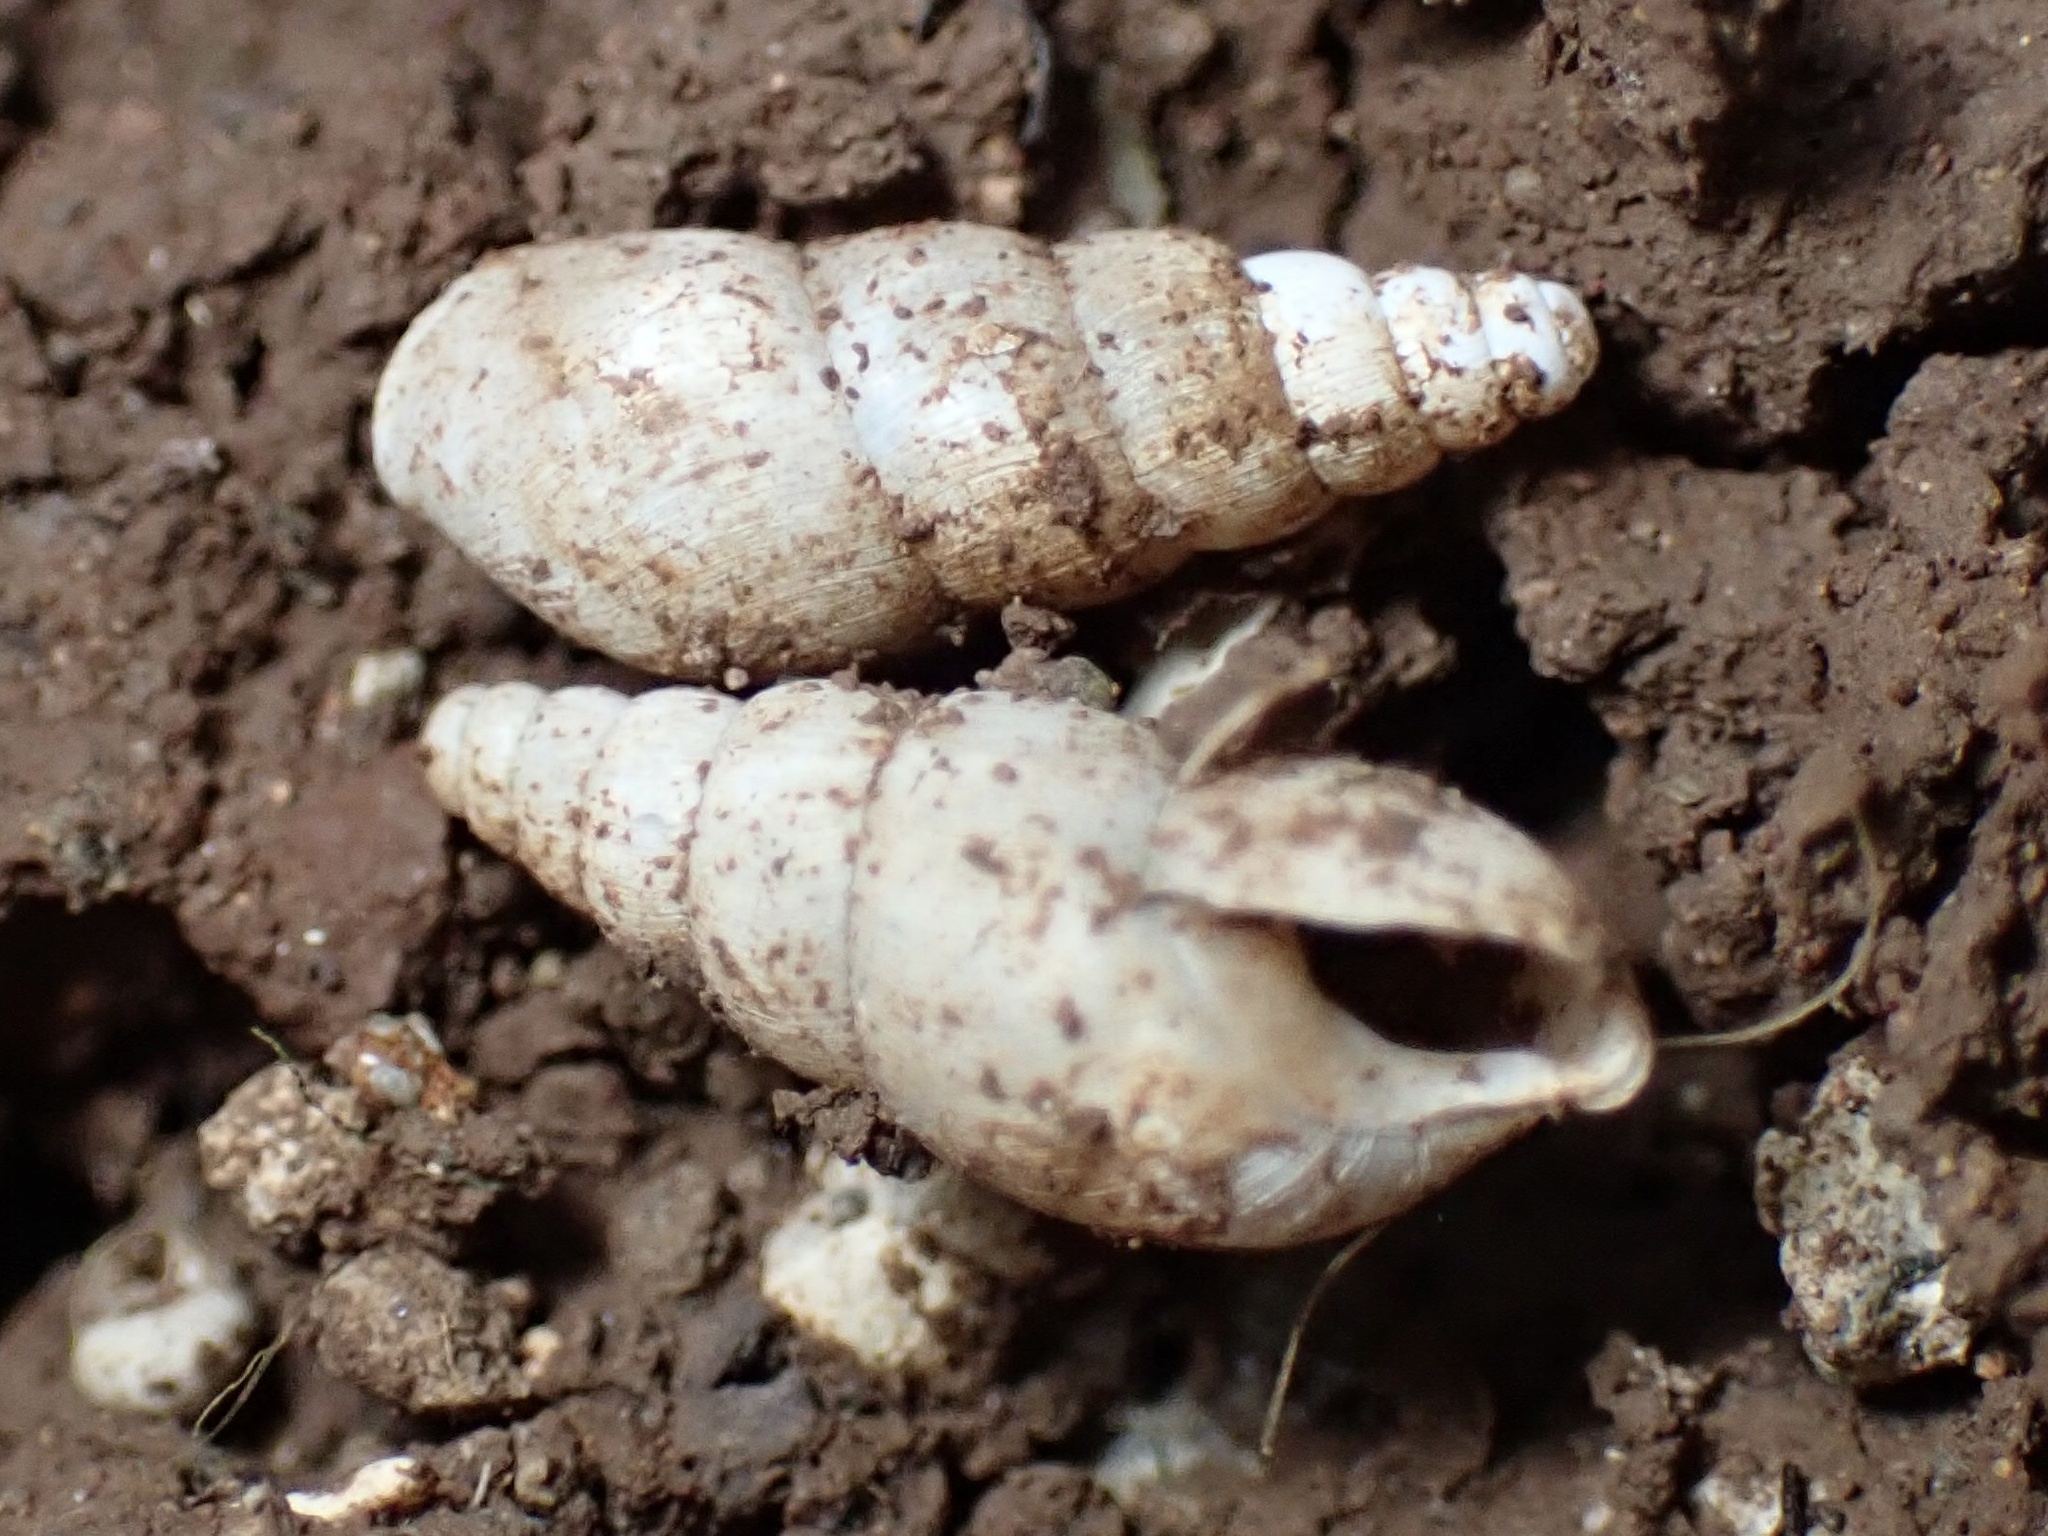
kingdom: Animalia
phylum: Mollusca
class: Gastropoda
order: Stylommatophora
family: Achatinidae
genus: Paropeas
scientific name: Paropeas achatinaceum
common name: Snail
